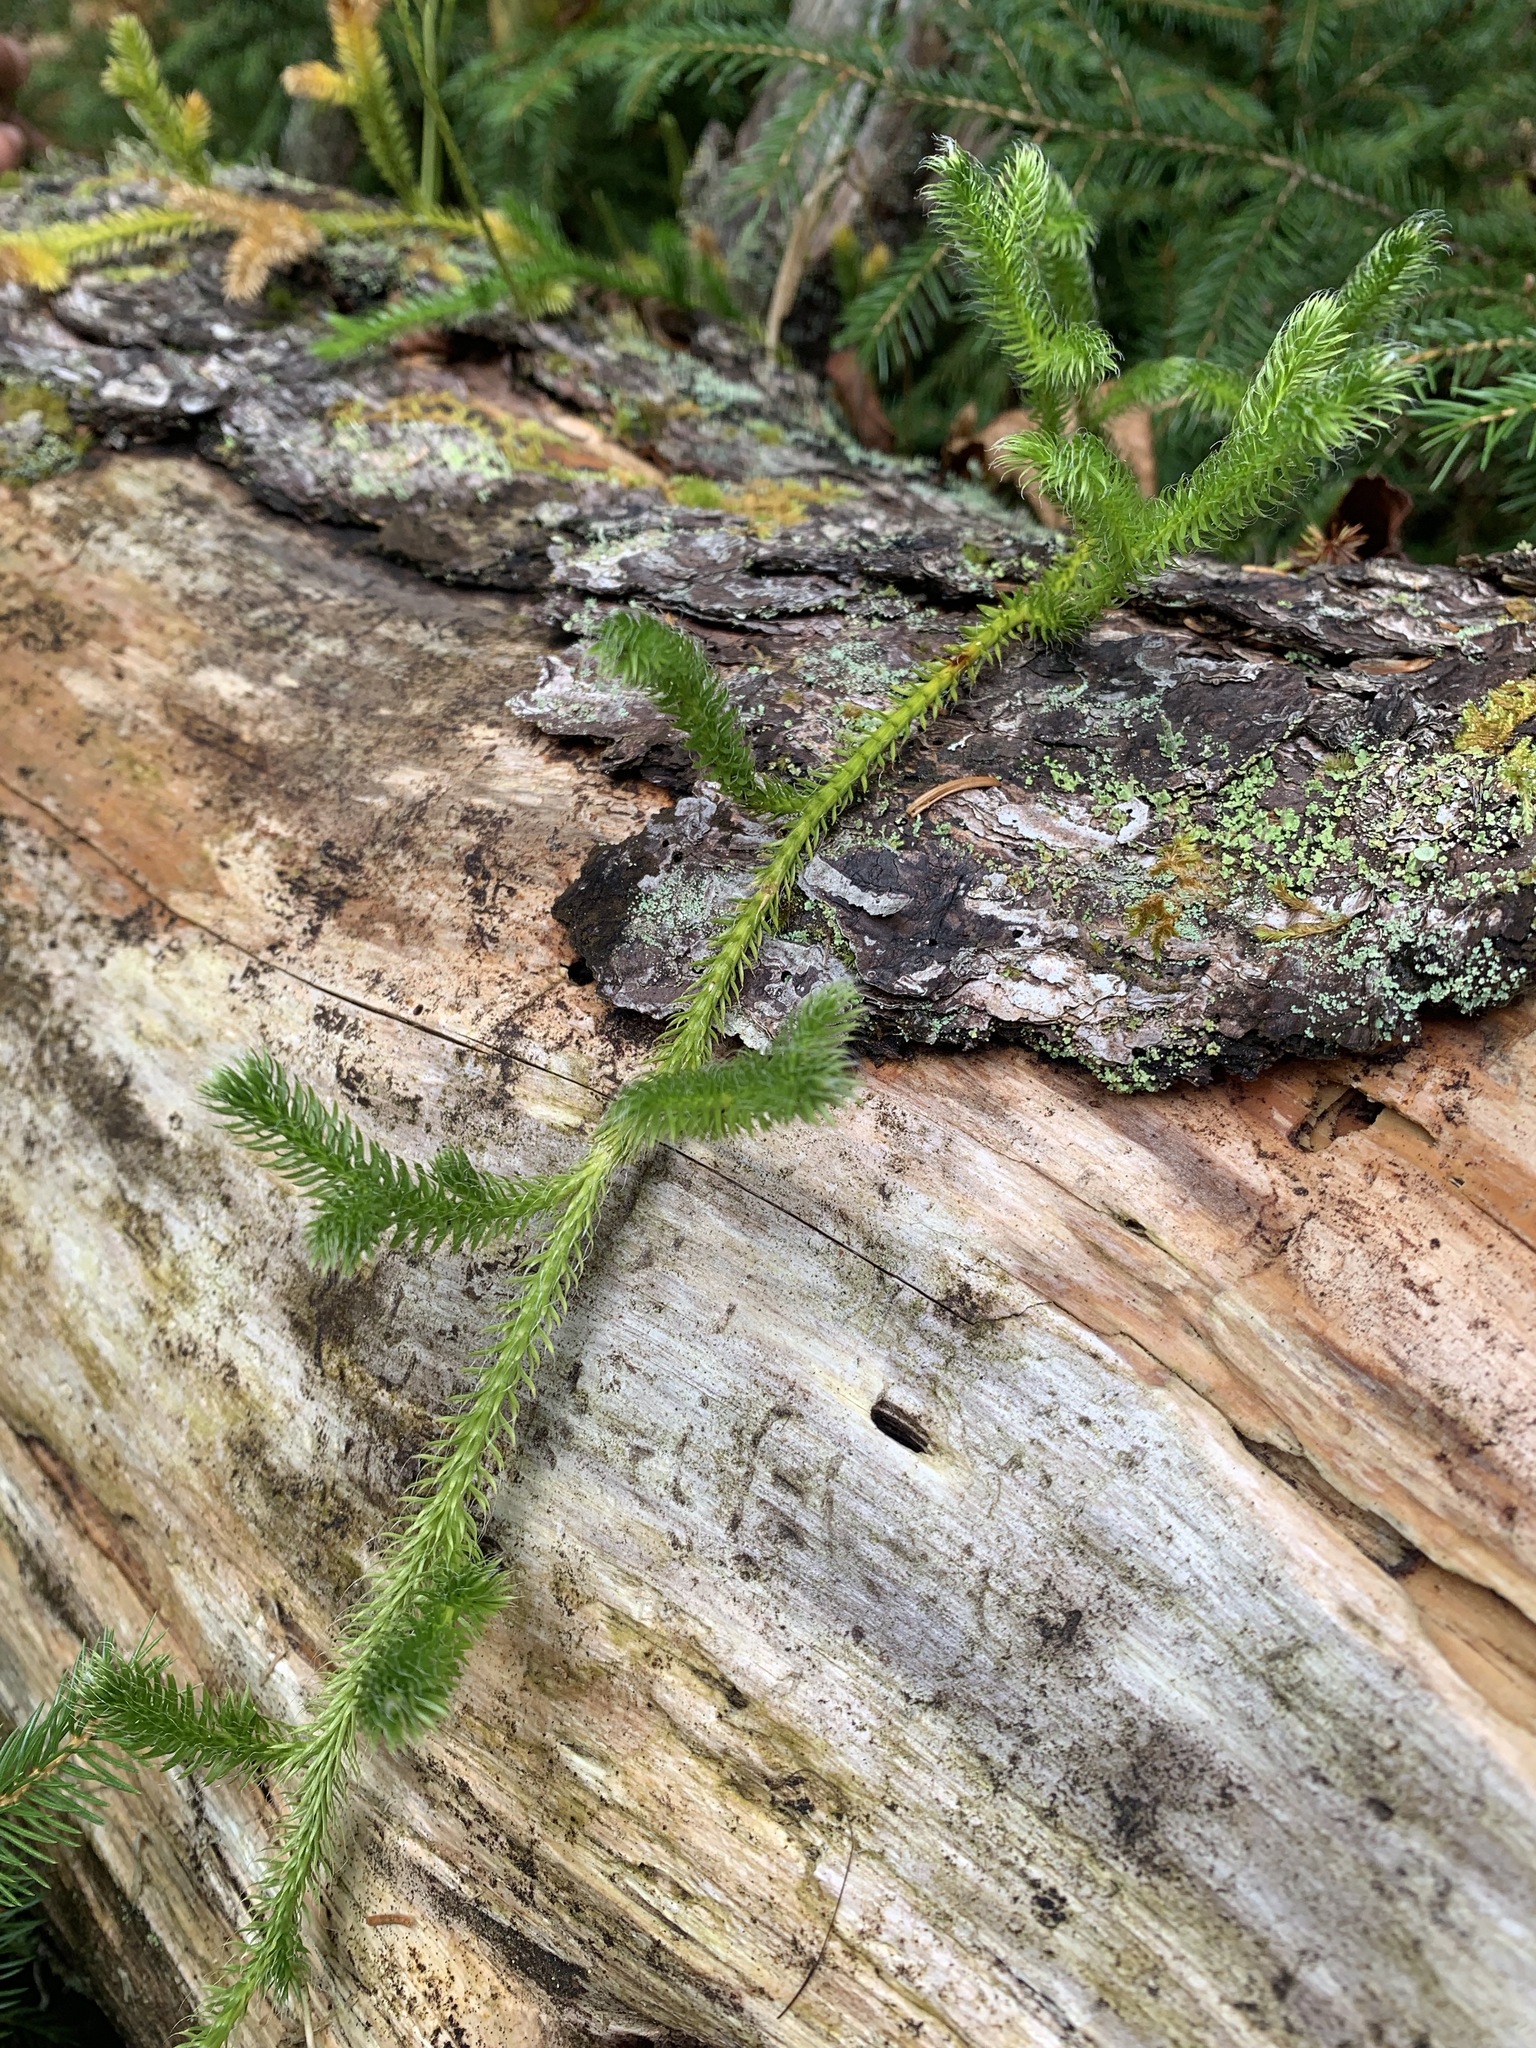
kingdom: Plantae
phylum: Tracheophyta
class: Lycopodiopsida
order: Lycopodiales
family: Lycopodiaceae
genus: Lycopodium
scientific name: Lycopodium clavatum
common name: Stag's-horn clubmoss
